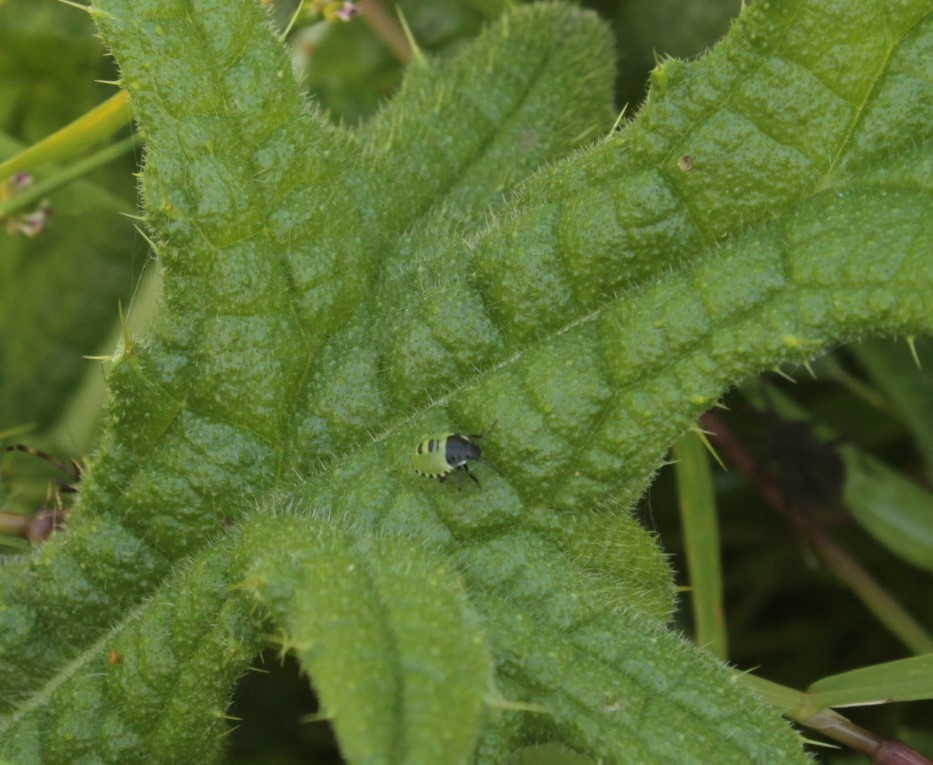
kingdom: Animalia
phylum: Arthropoda
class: Insecta
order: Hemiptera
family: Pentatomidae
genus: Palomena
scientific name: Palomena prasina
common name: Green shieldbug
